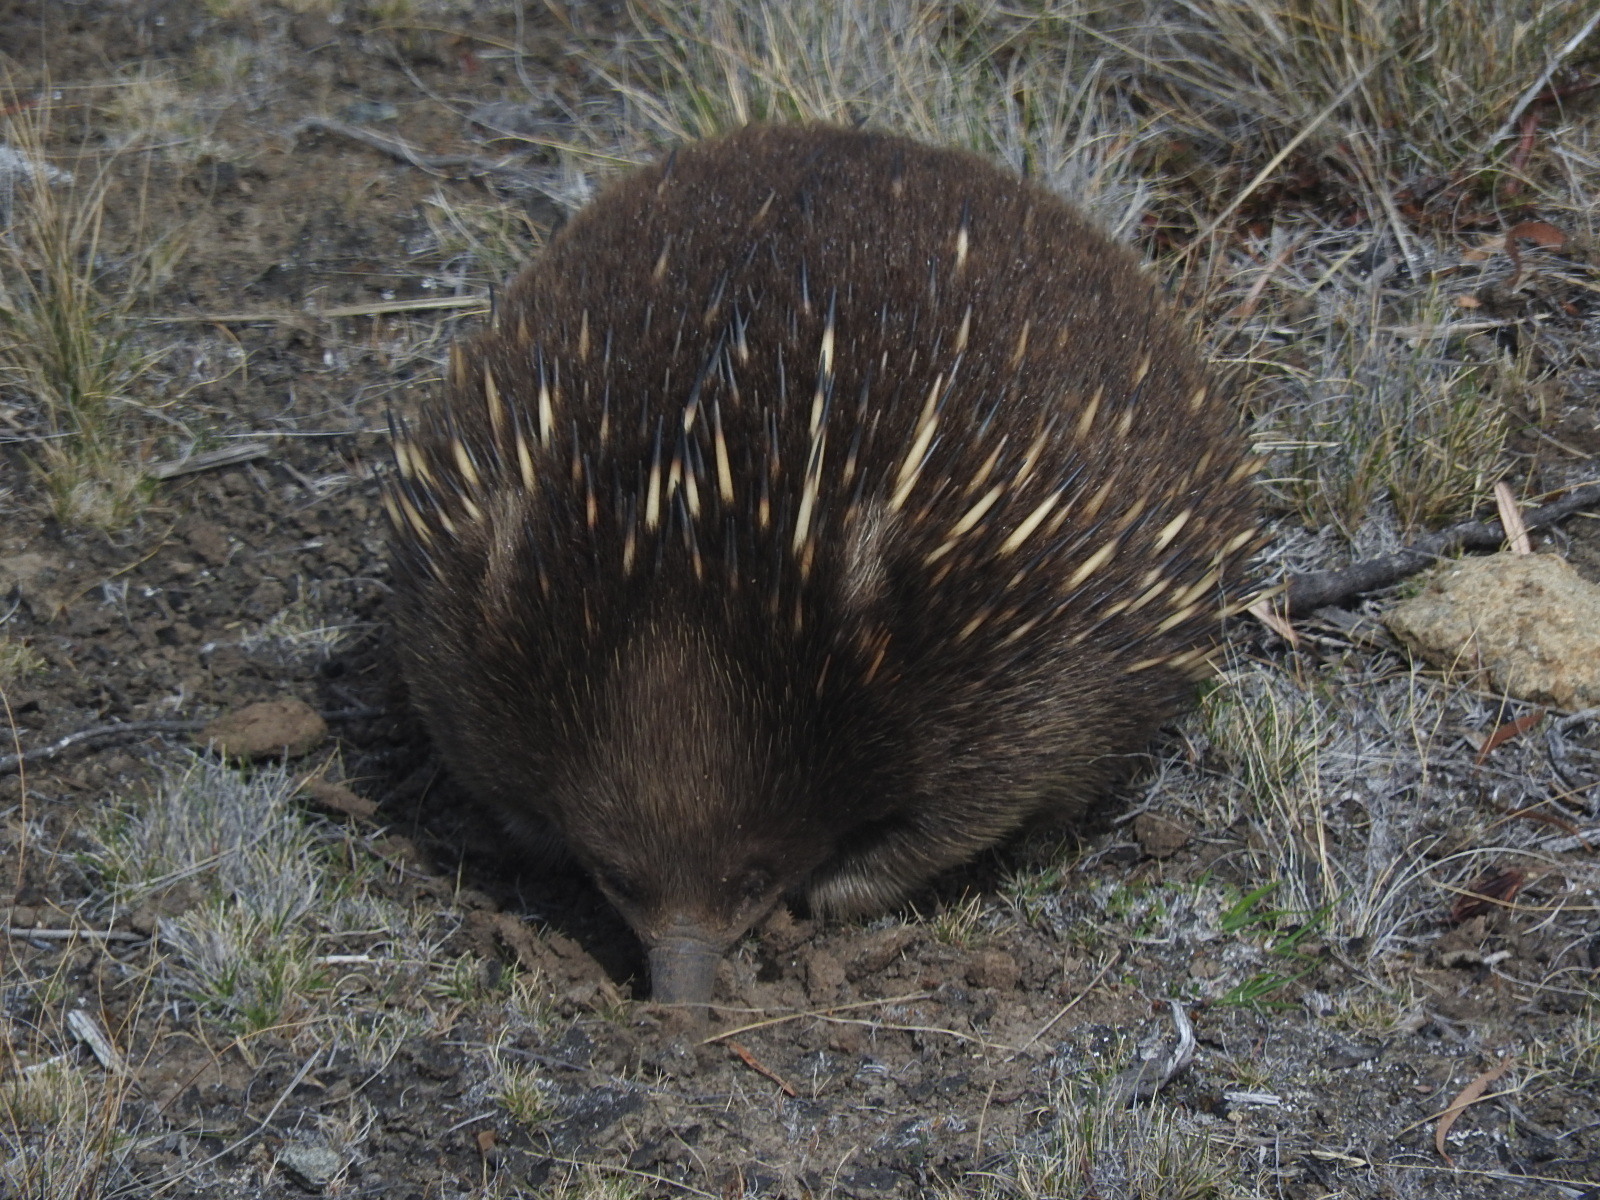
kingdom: Animalia
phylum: Chordata
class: Mammalia
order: Monotremata
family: Tachyglossidae
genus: Tachyglossus
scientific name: Tachyglossus aculeatus
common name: Short-beaked echidna
